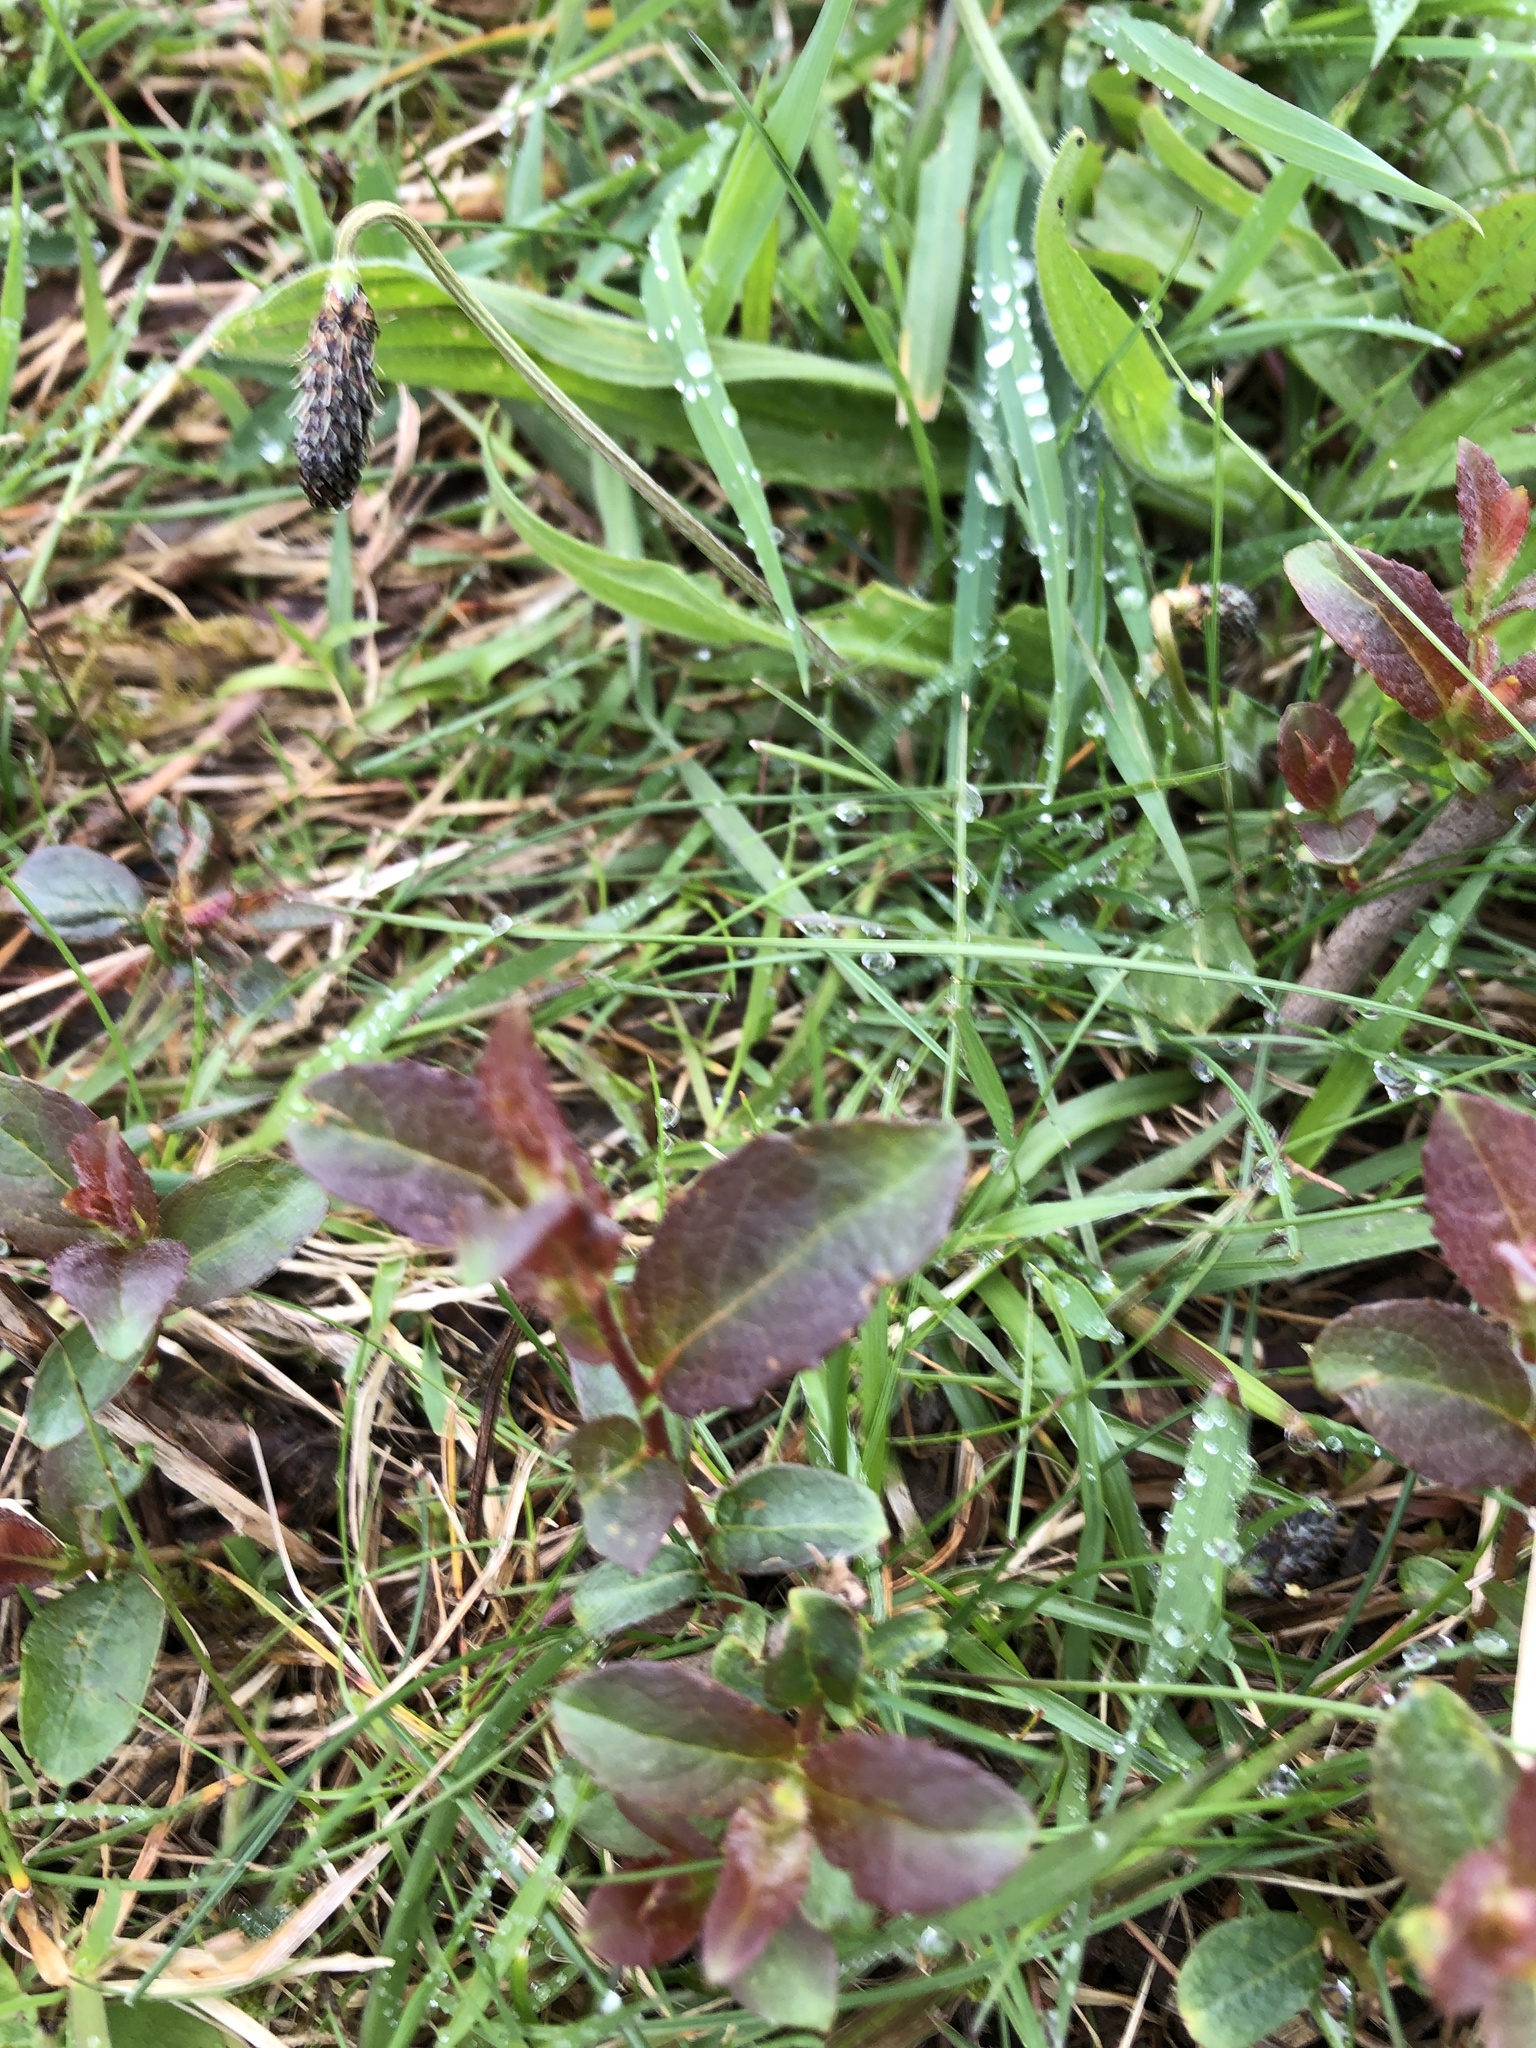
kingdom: Plantae
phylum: Tracheophyta
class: Magnoliopsida
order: Malpighiales
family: Salicaceae
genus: Salix
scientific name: Salix cinerea
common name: Common sallow
